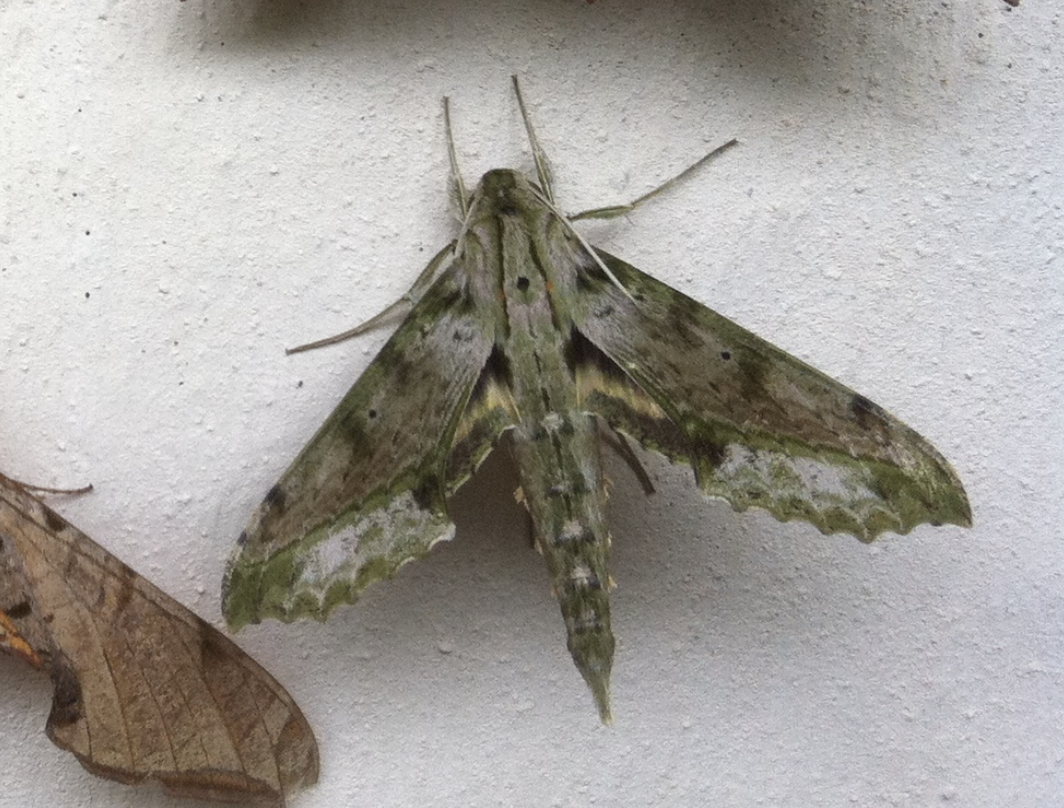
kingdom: Animalia
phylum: Arthropoda
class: Insecta
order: Lepidoptera
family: Sphingidae
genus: Xylophanes
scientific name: Xylophanes undata
